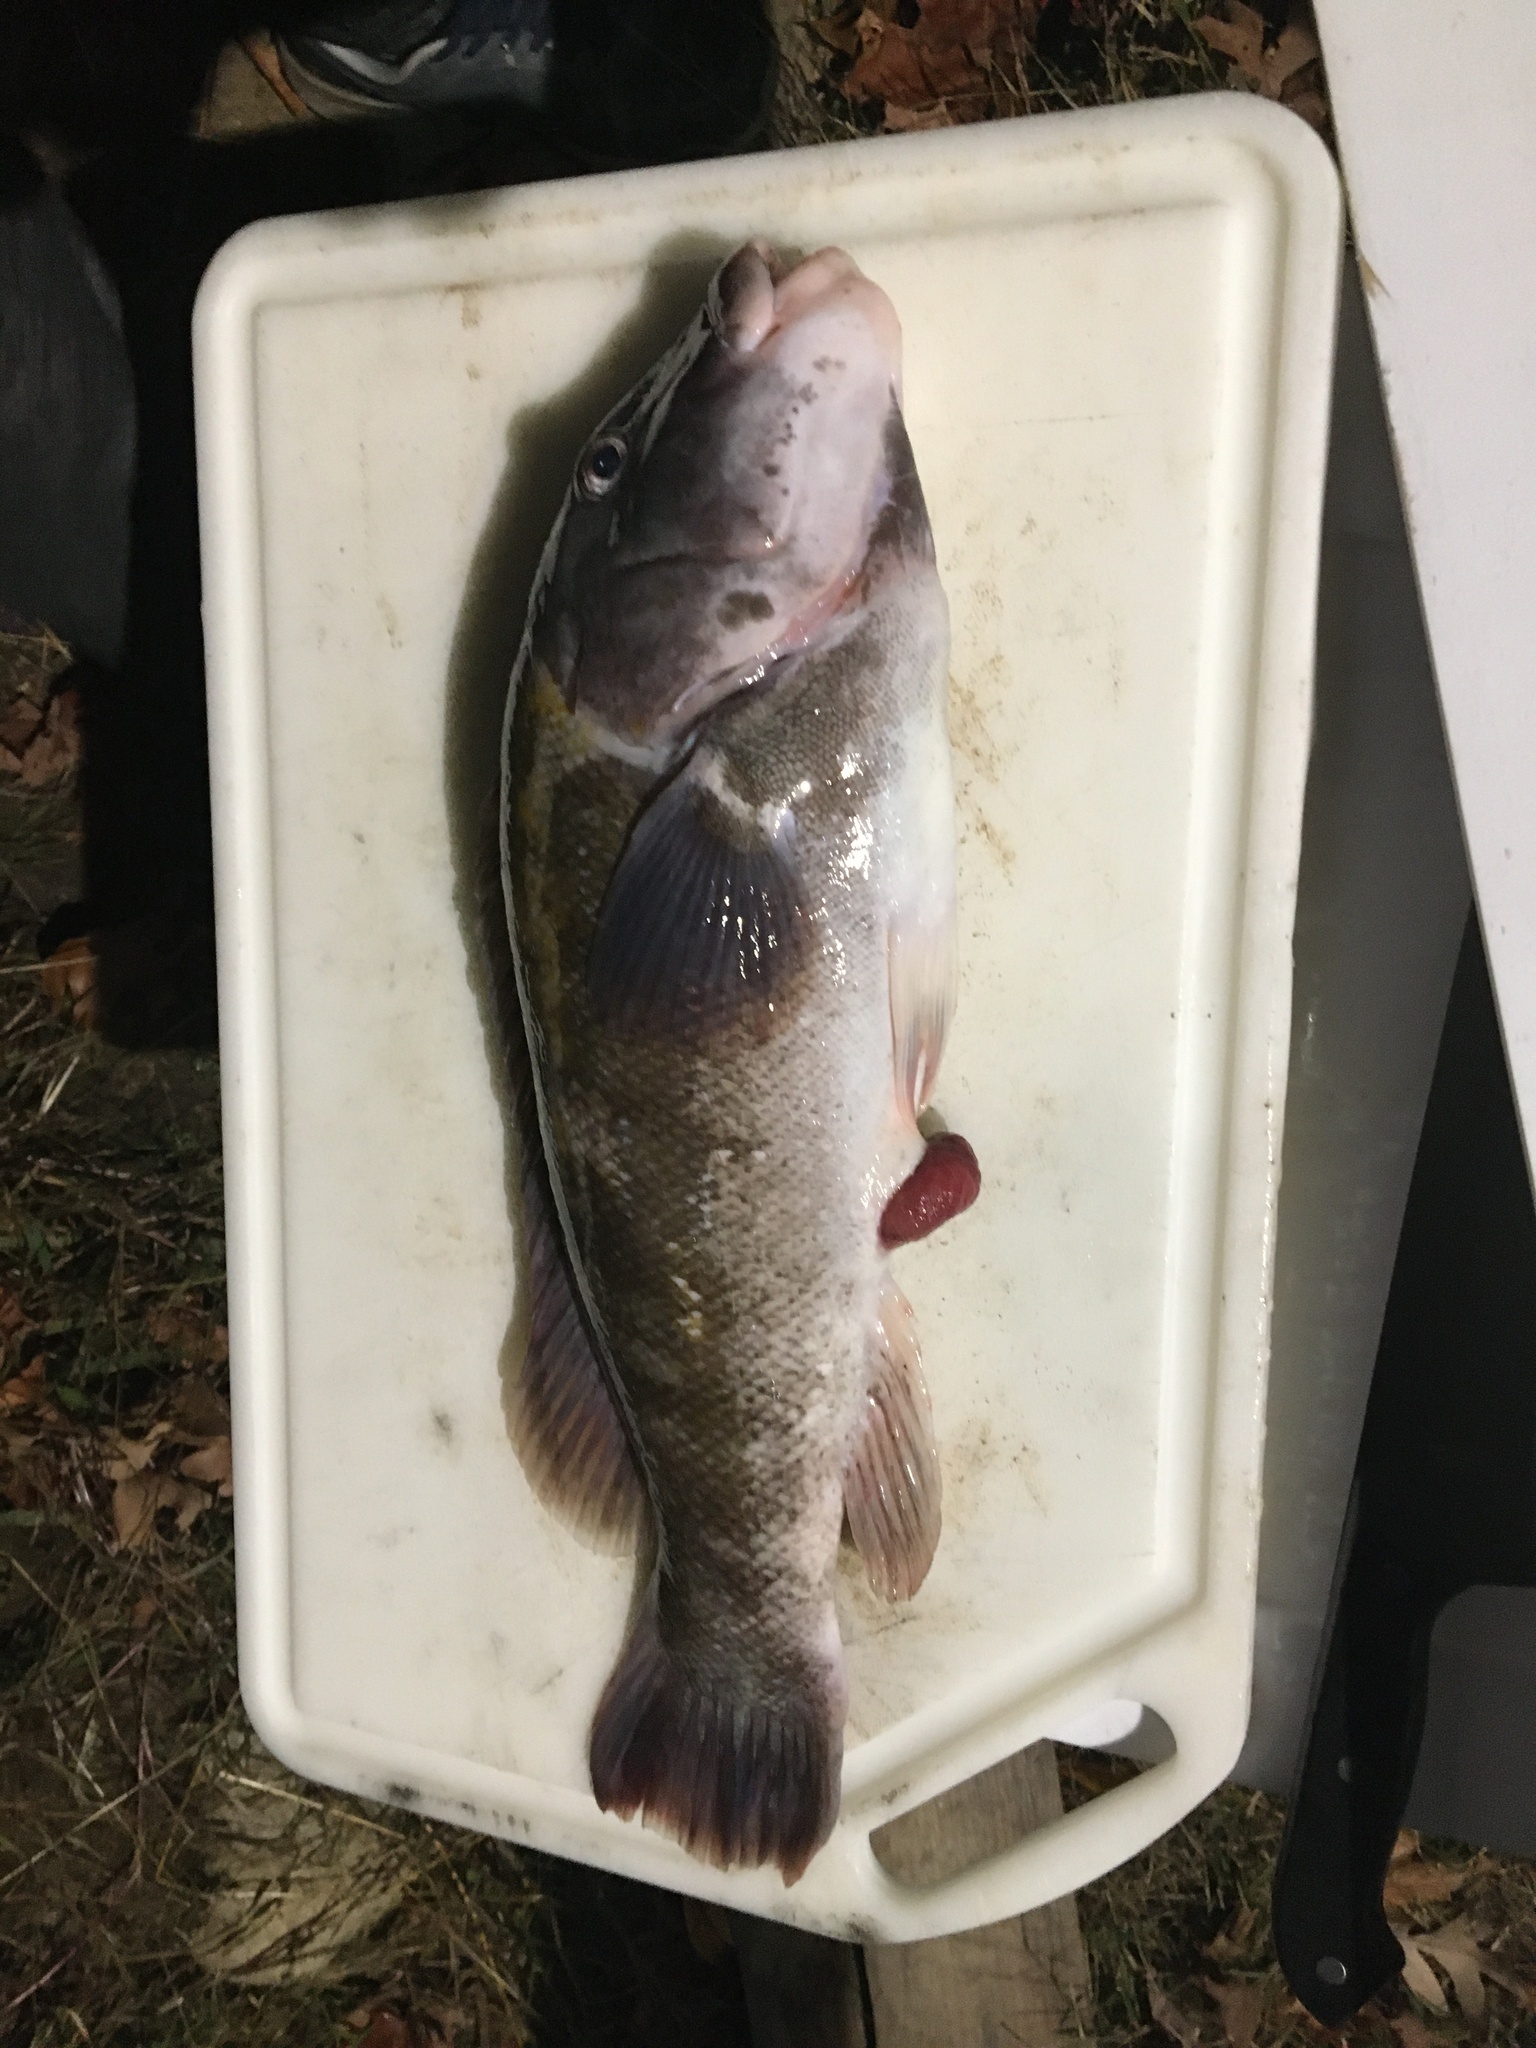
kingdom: Animalia
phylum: Chordata
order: Perciformes
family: Labridae
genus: Tautoga
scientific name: Tautoga onitis
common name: Tautog
